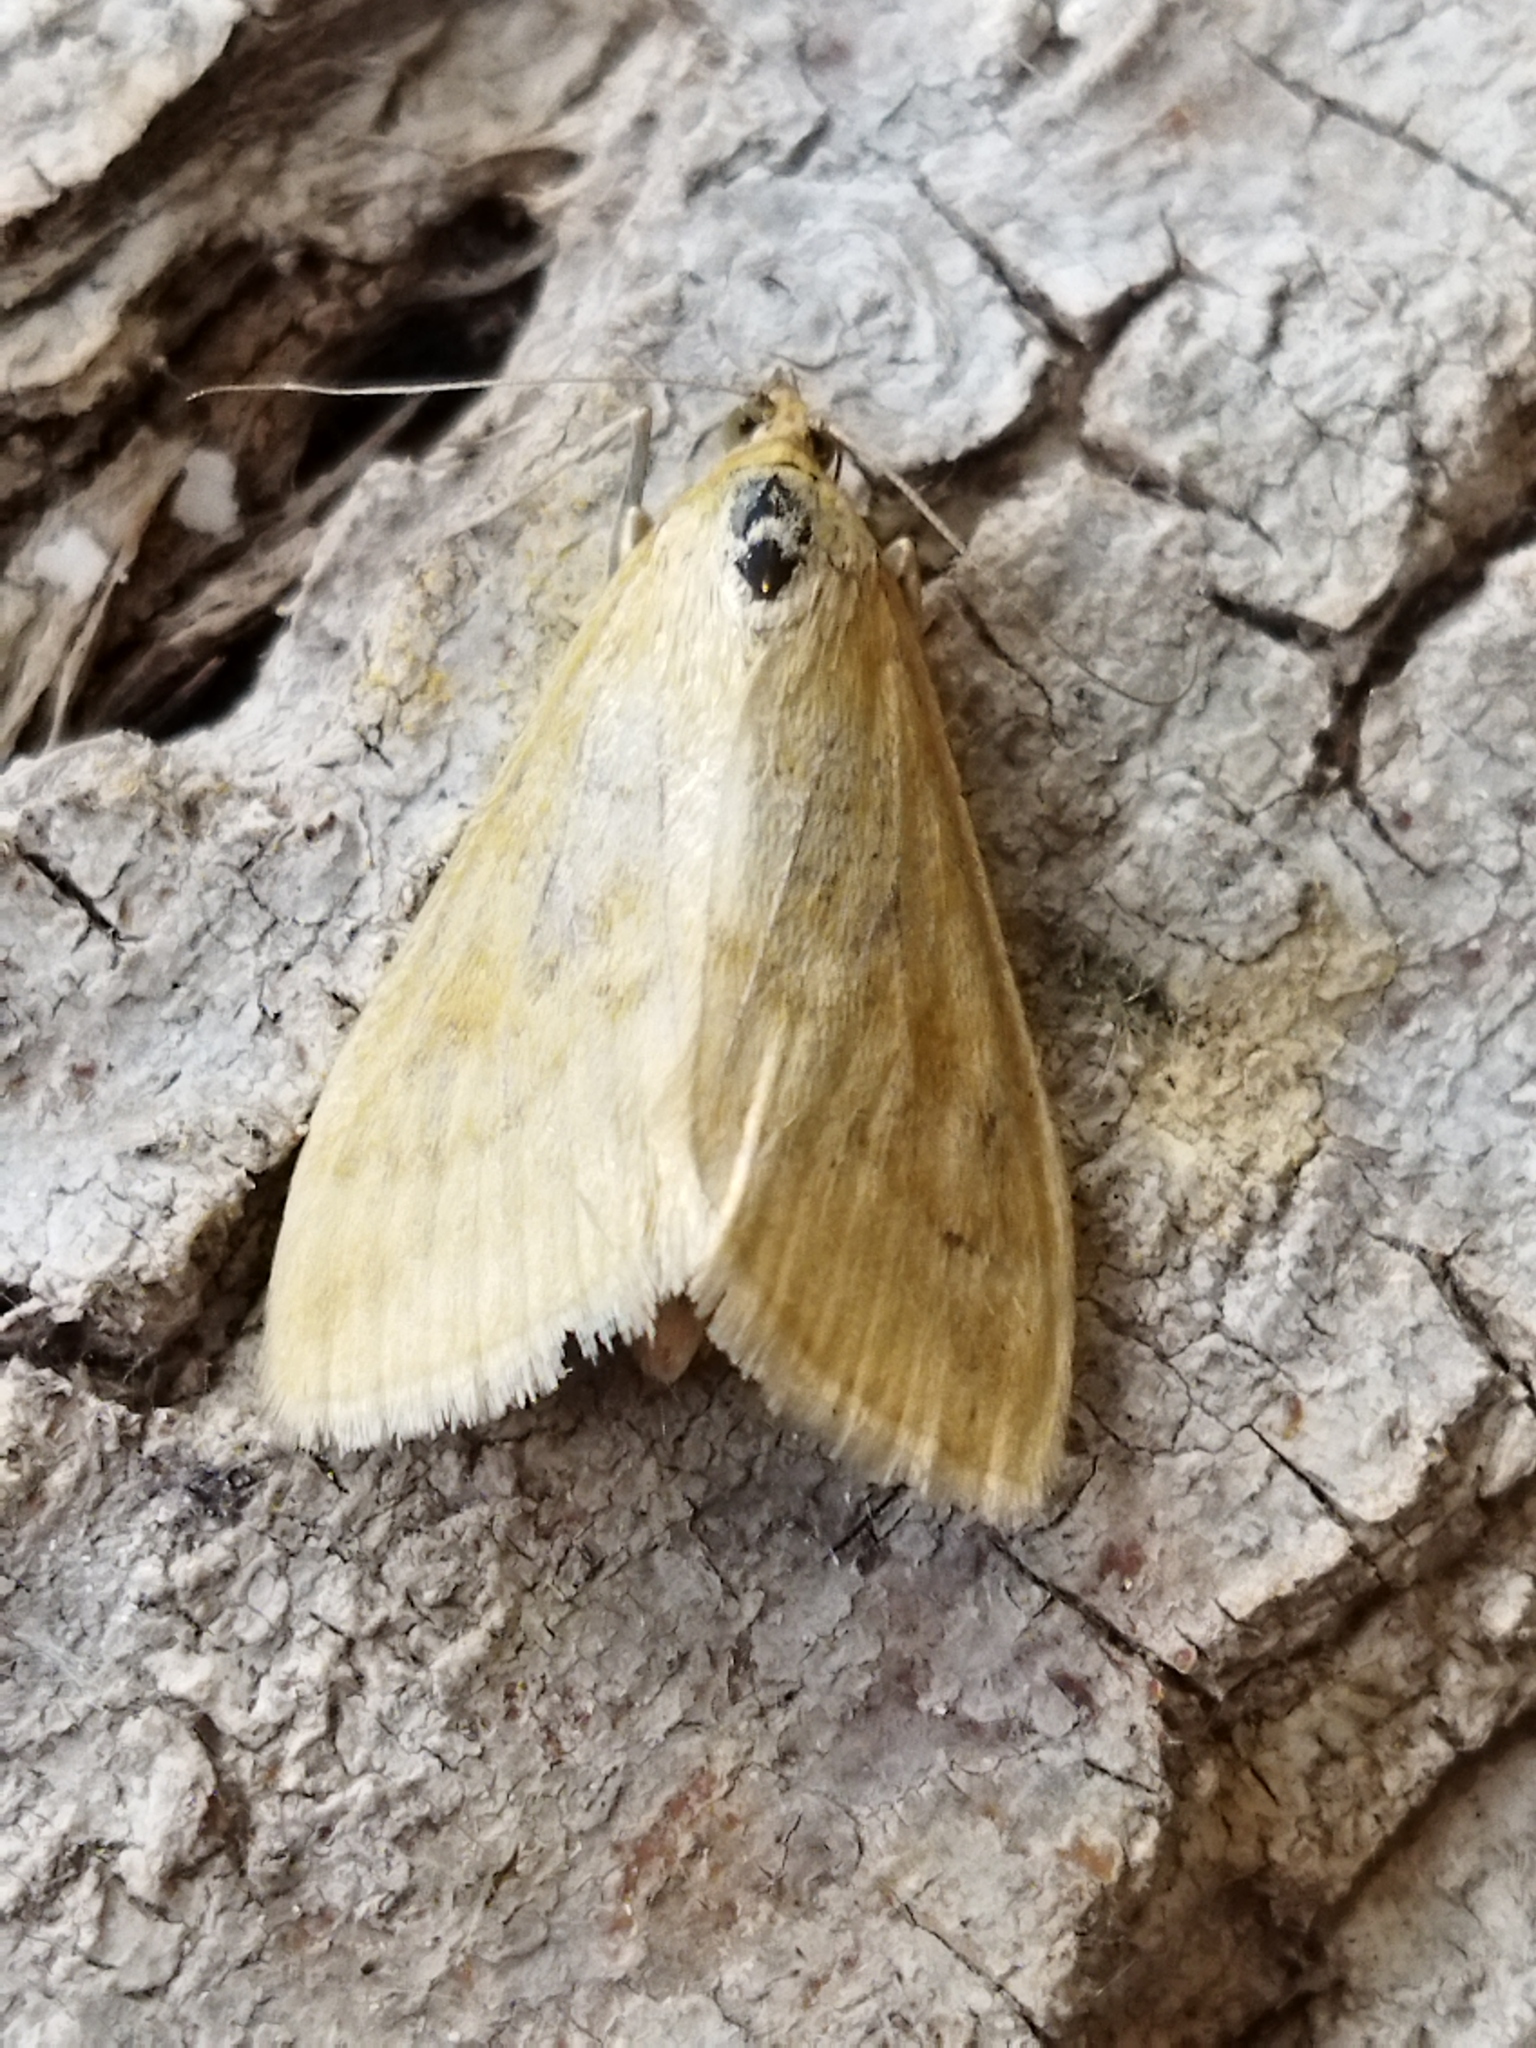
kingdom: Animalia
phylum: Arthropoda
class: Insecta
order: Lepidoptera
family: Crambidae
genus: Sitochroa
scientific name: Sitochroa verticalis
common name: Lesser pearl
